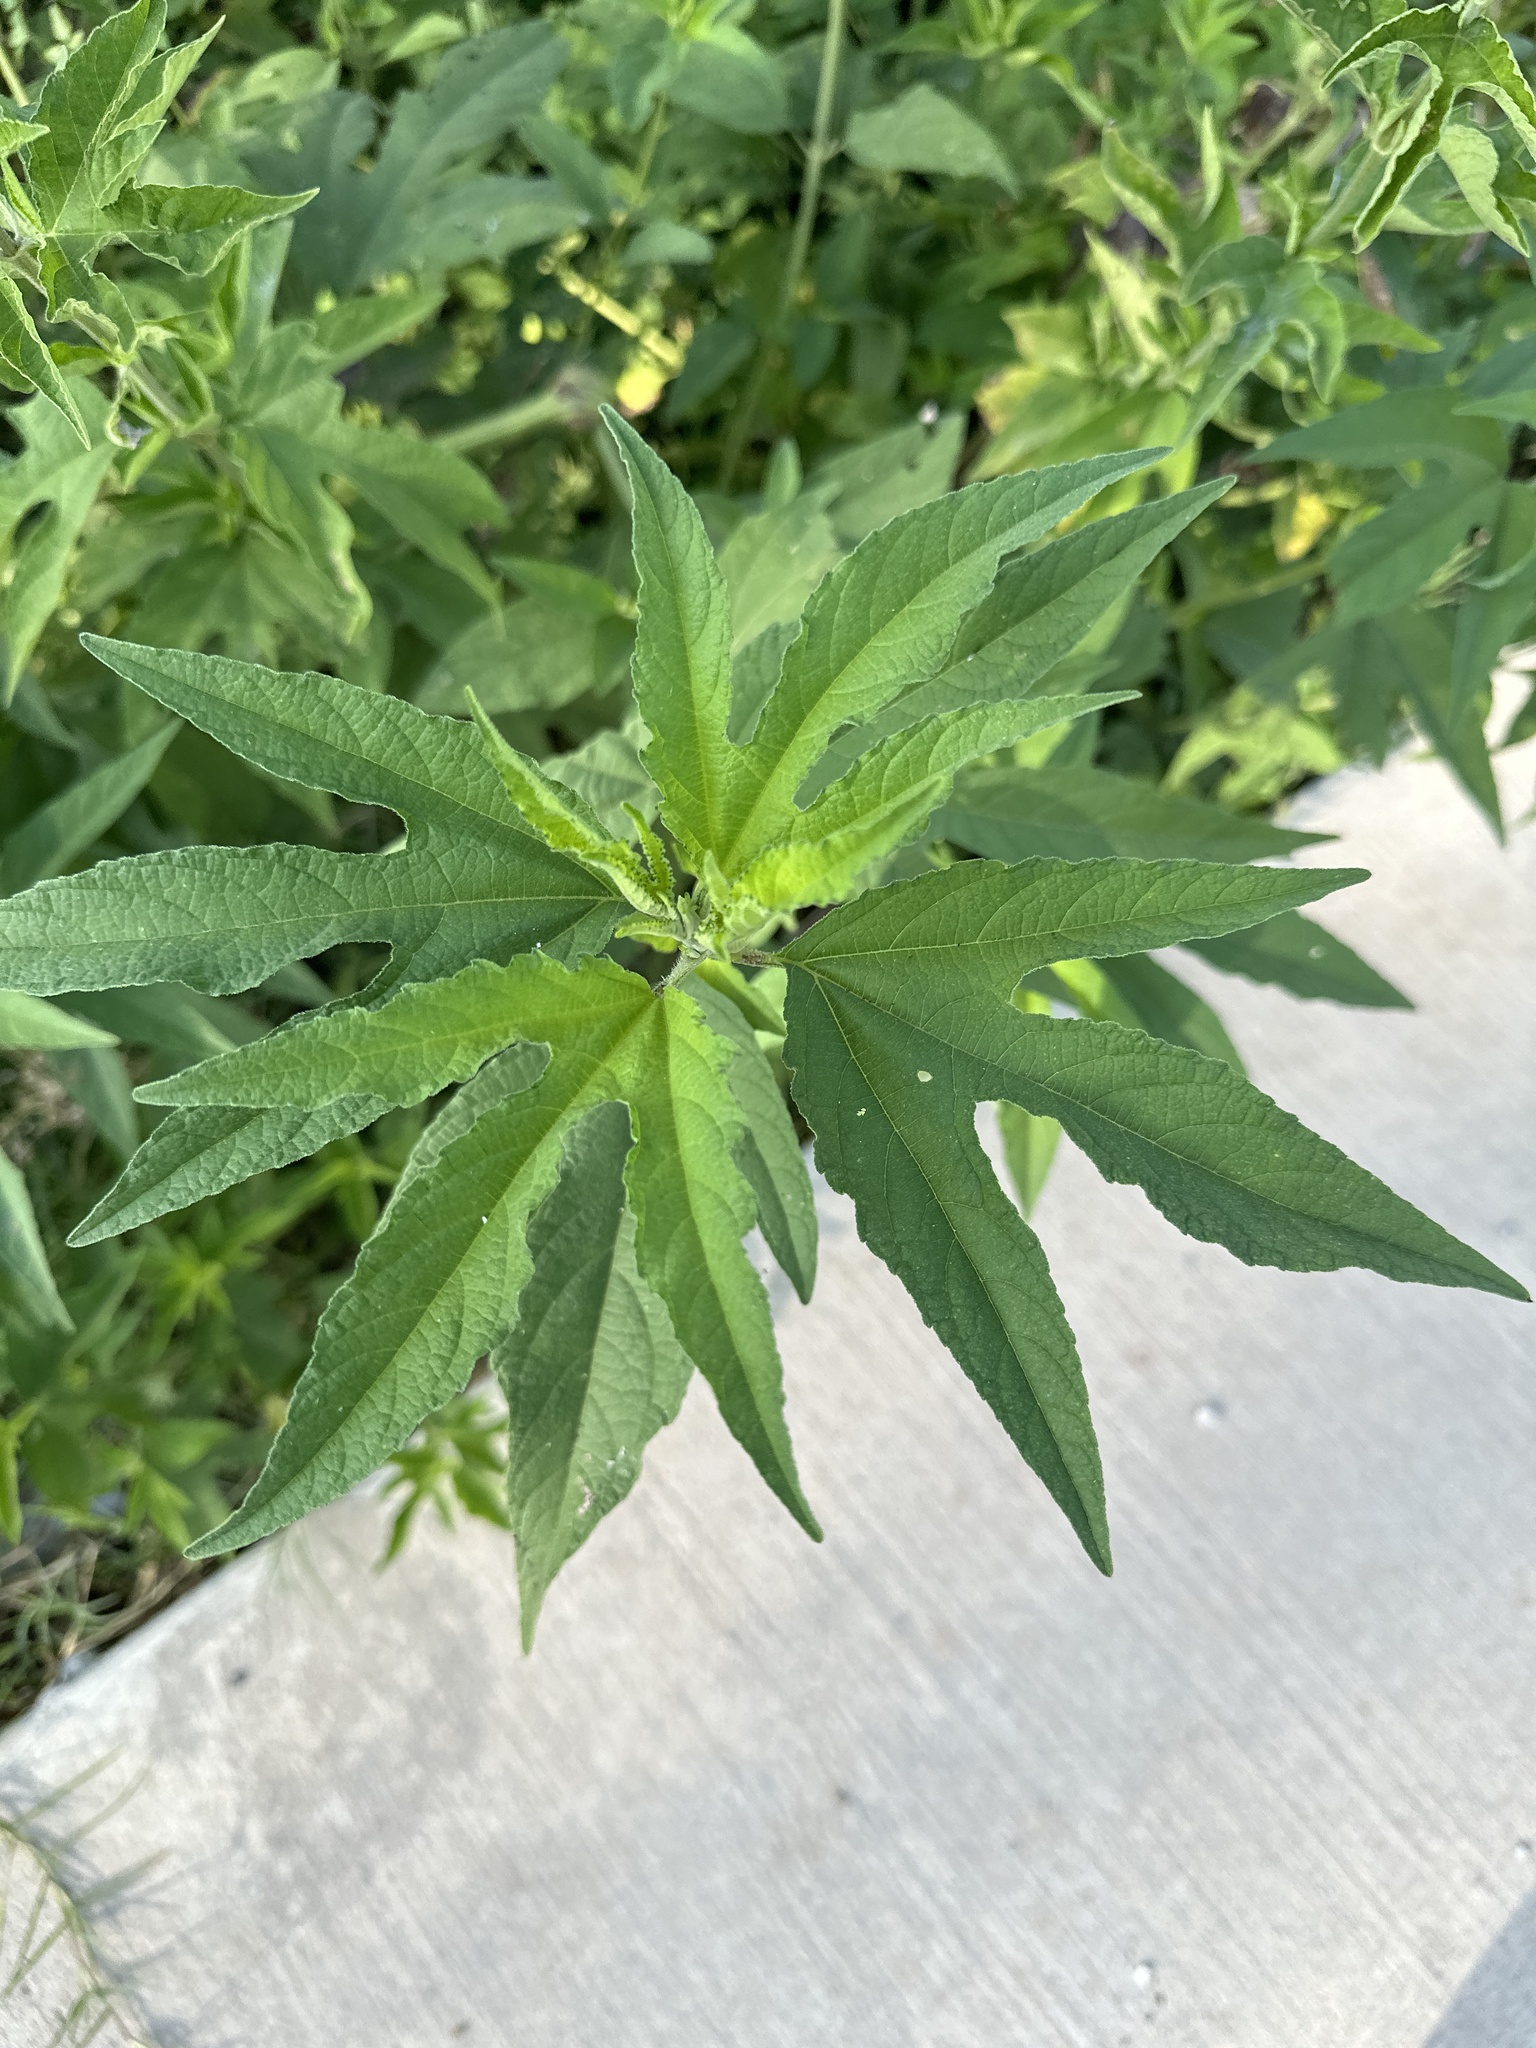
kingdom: Plantae
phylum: Tracheophyta
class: Magnoliopsida
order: Asterales
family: Asteraceae
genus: Ambrosia
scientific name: Ambrosia trifida
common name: Giant ragweed
